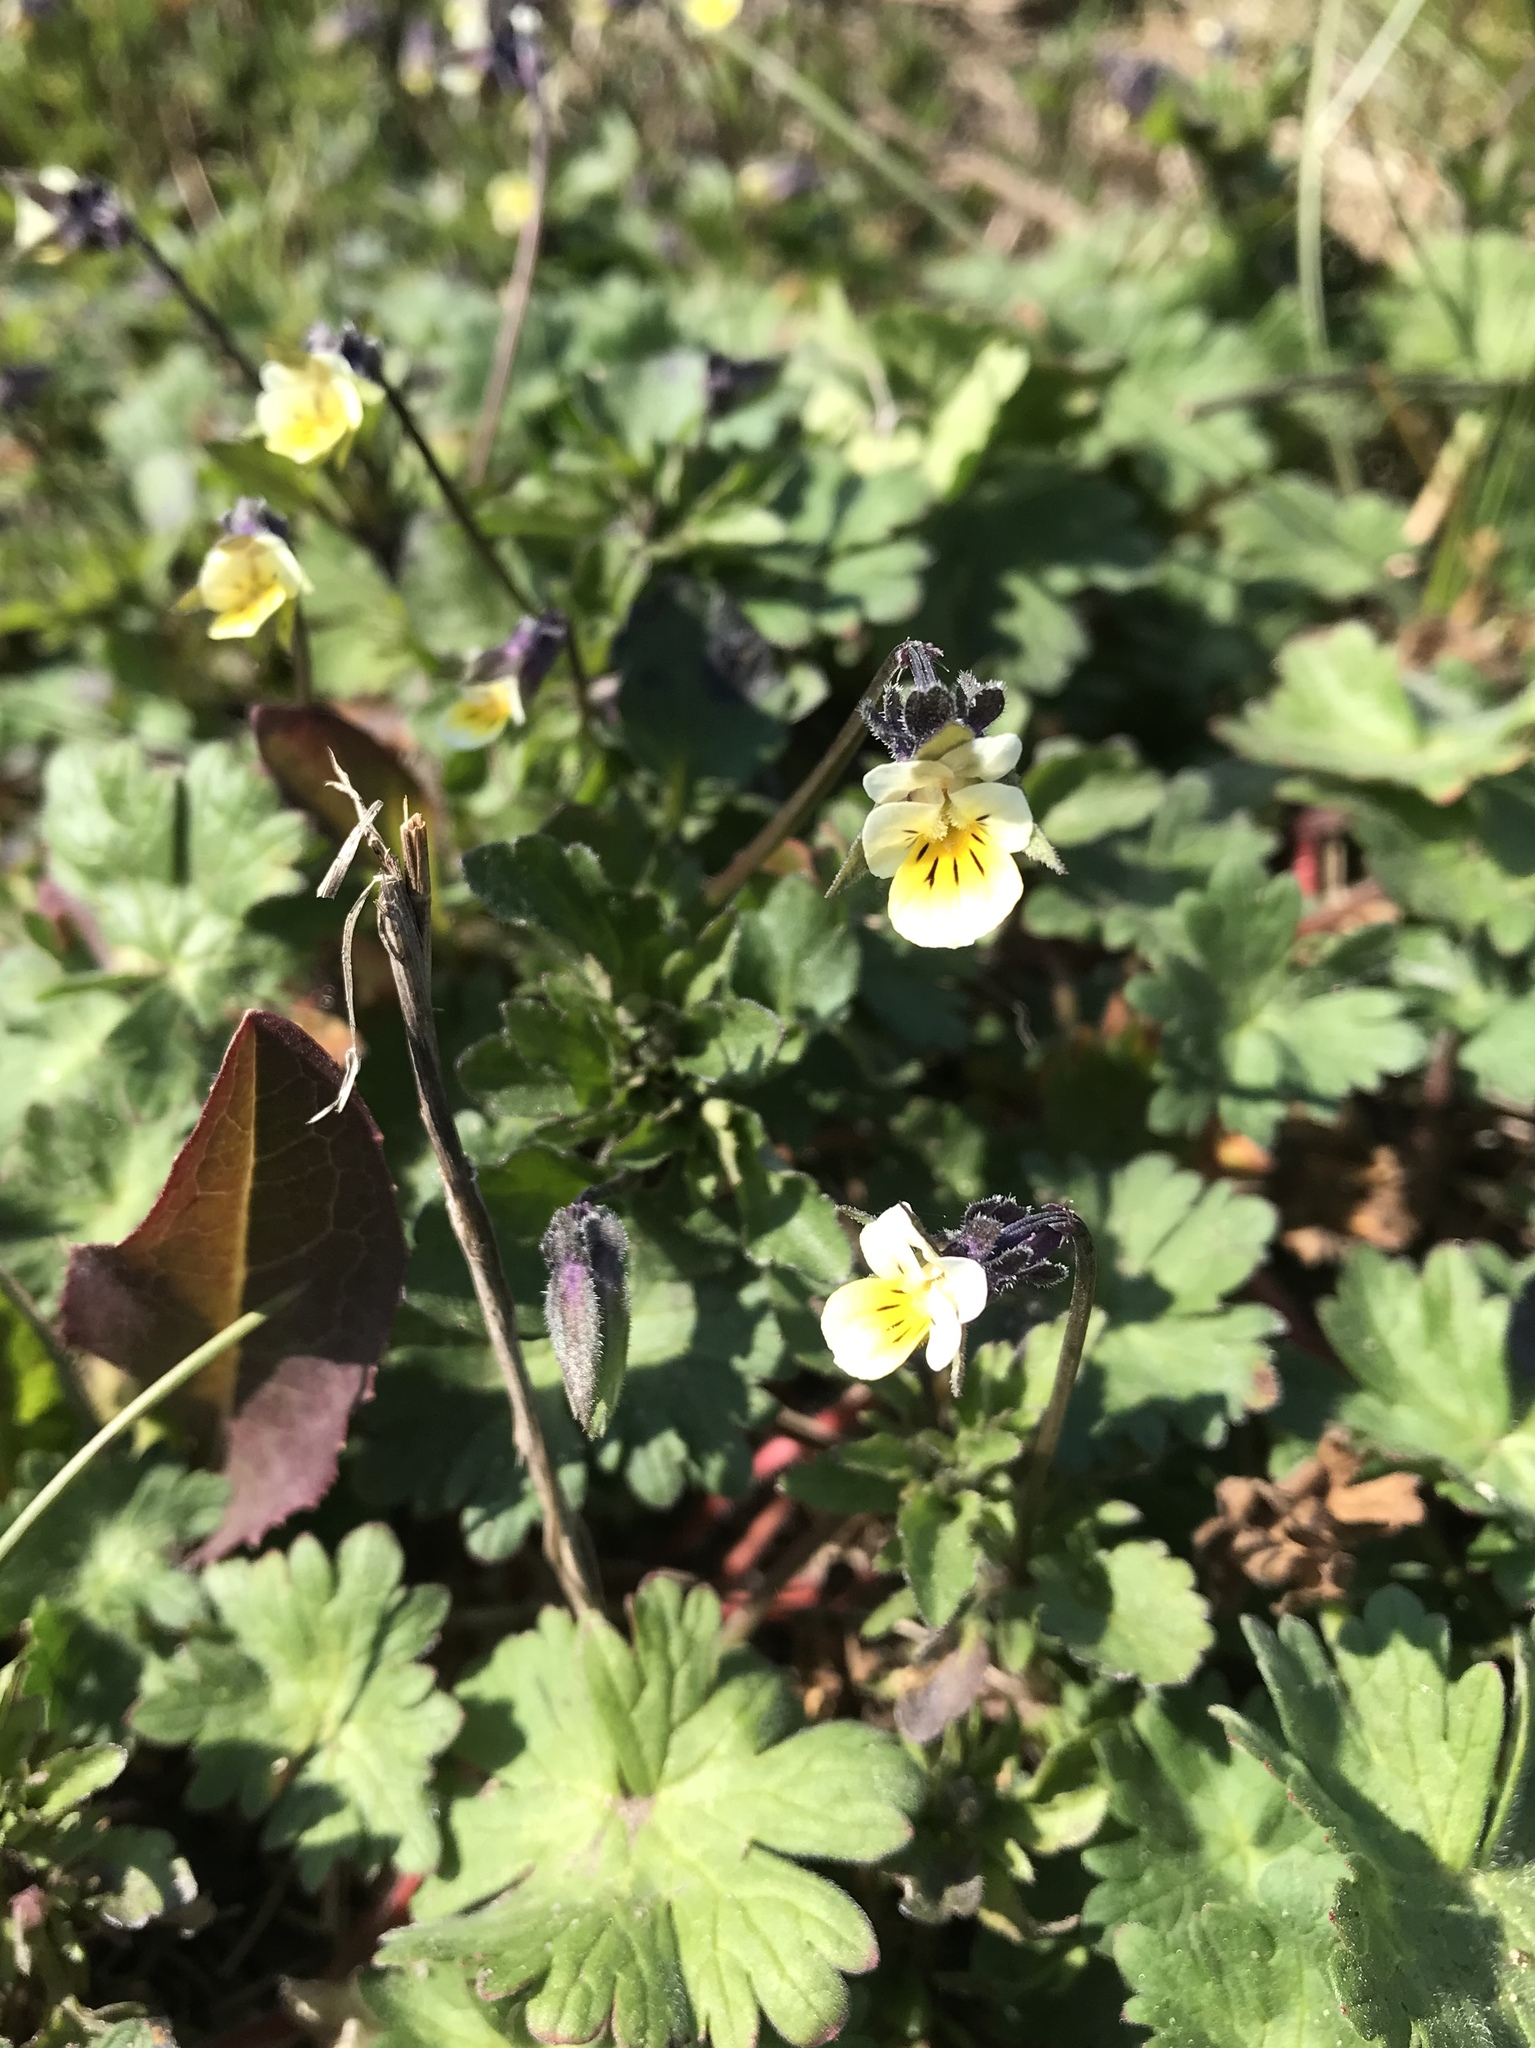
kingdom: Plantae
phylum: Tracheophyta
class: Magnoliopsida
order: Malpighiales
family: Violaceae
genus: Viola
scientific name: Viola arvensis
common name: Field pansy
